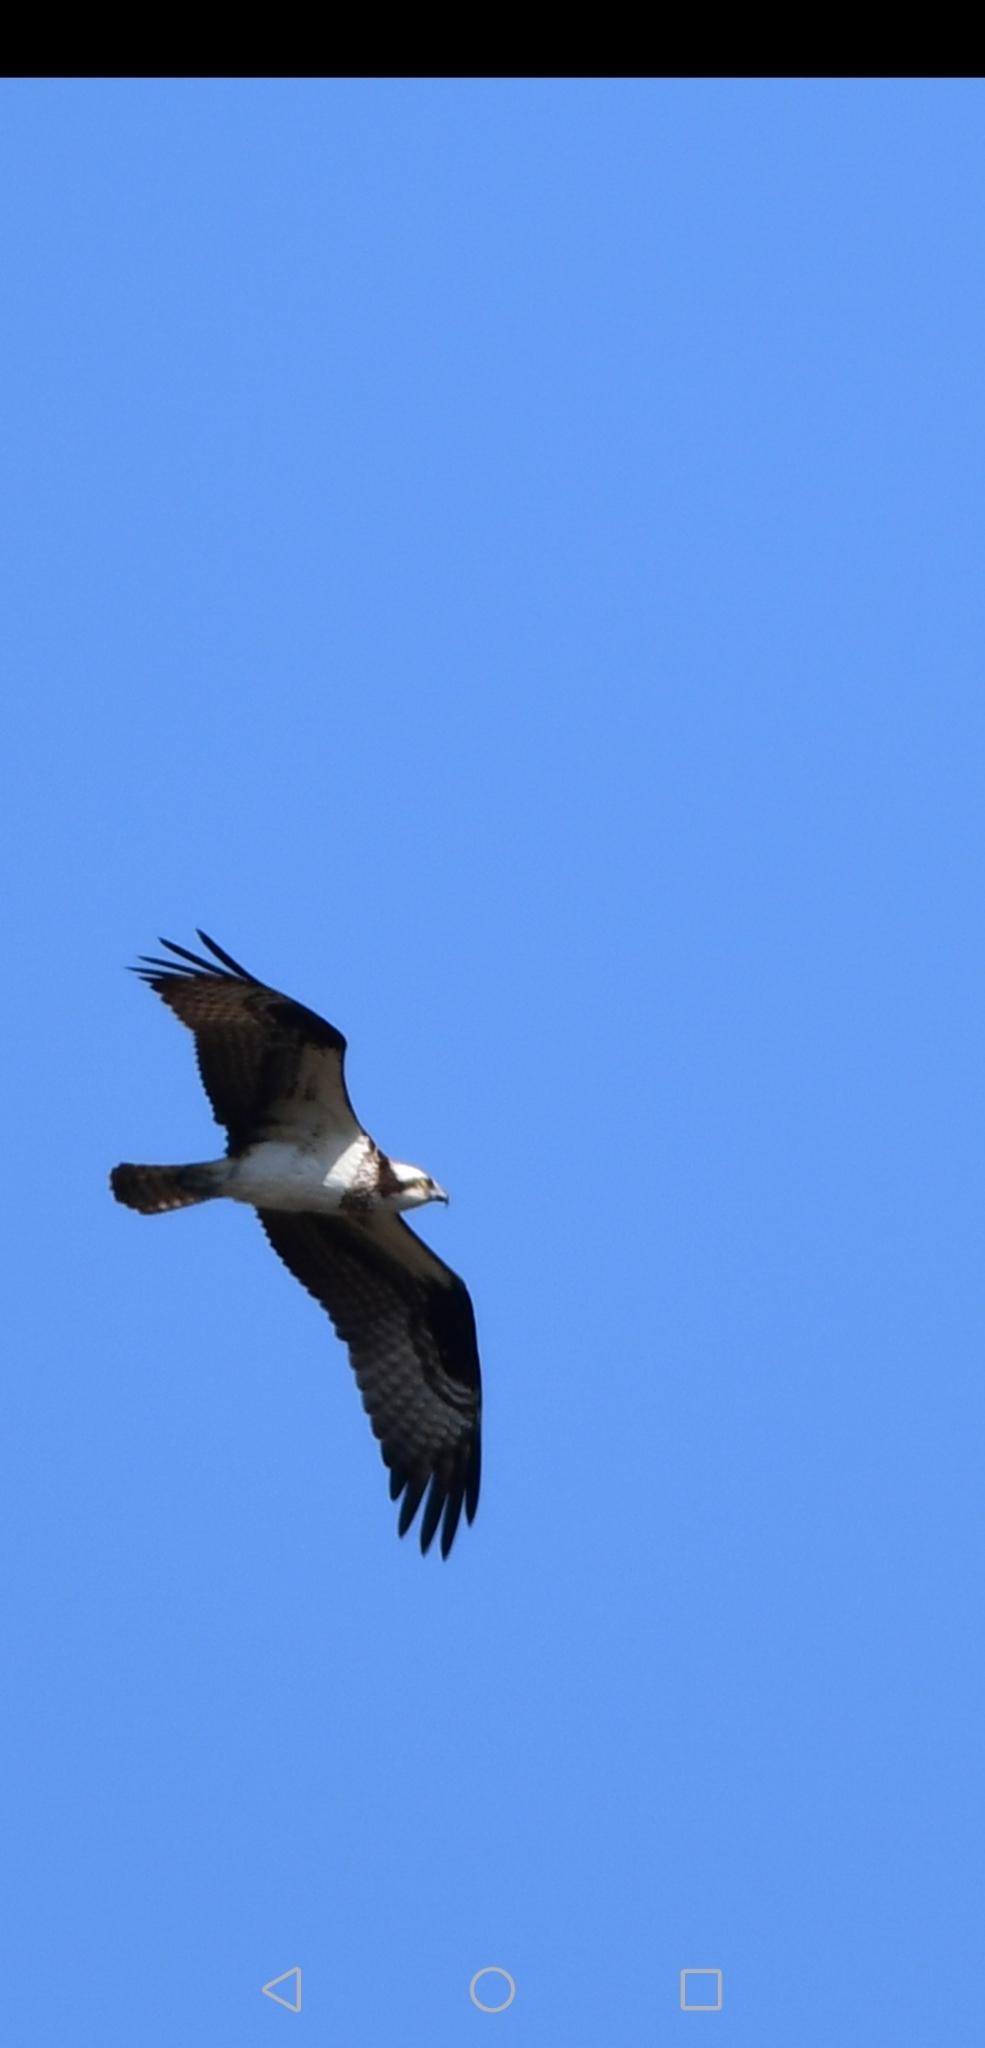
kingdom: Animalia
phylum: Chordata
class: Aves
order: Accipitriformes
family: Pandionidae
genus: Pandion
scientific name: Pandion haliaetus
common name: Osprey
